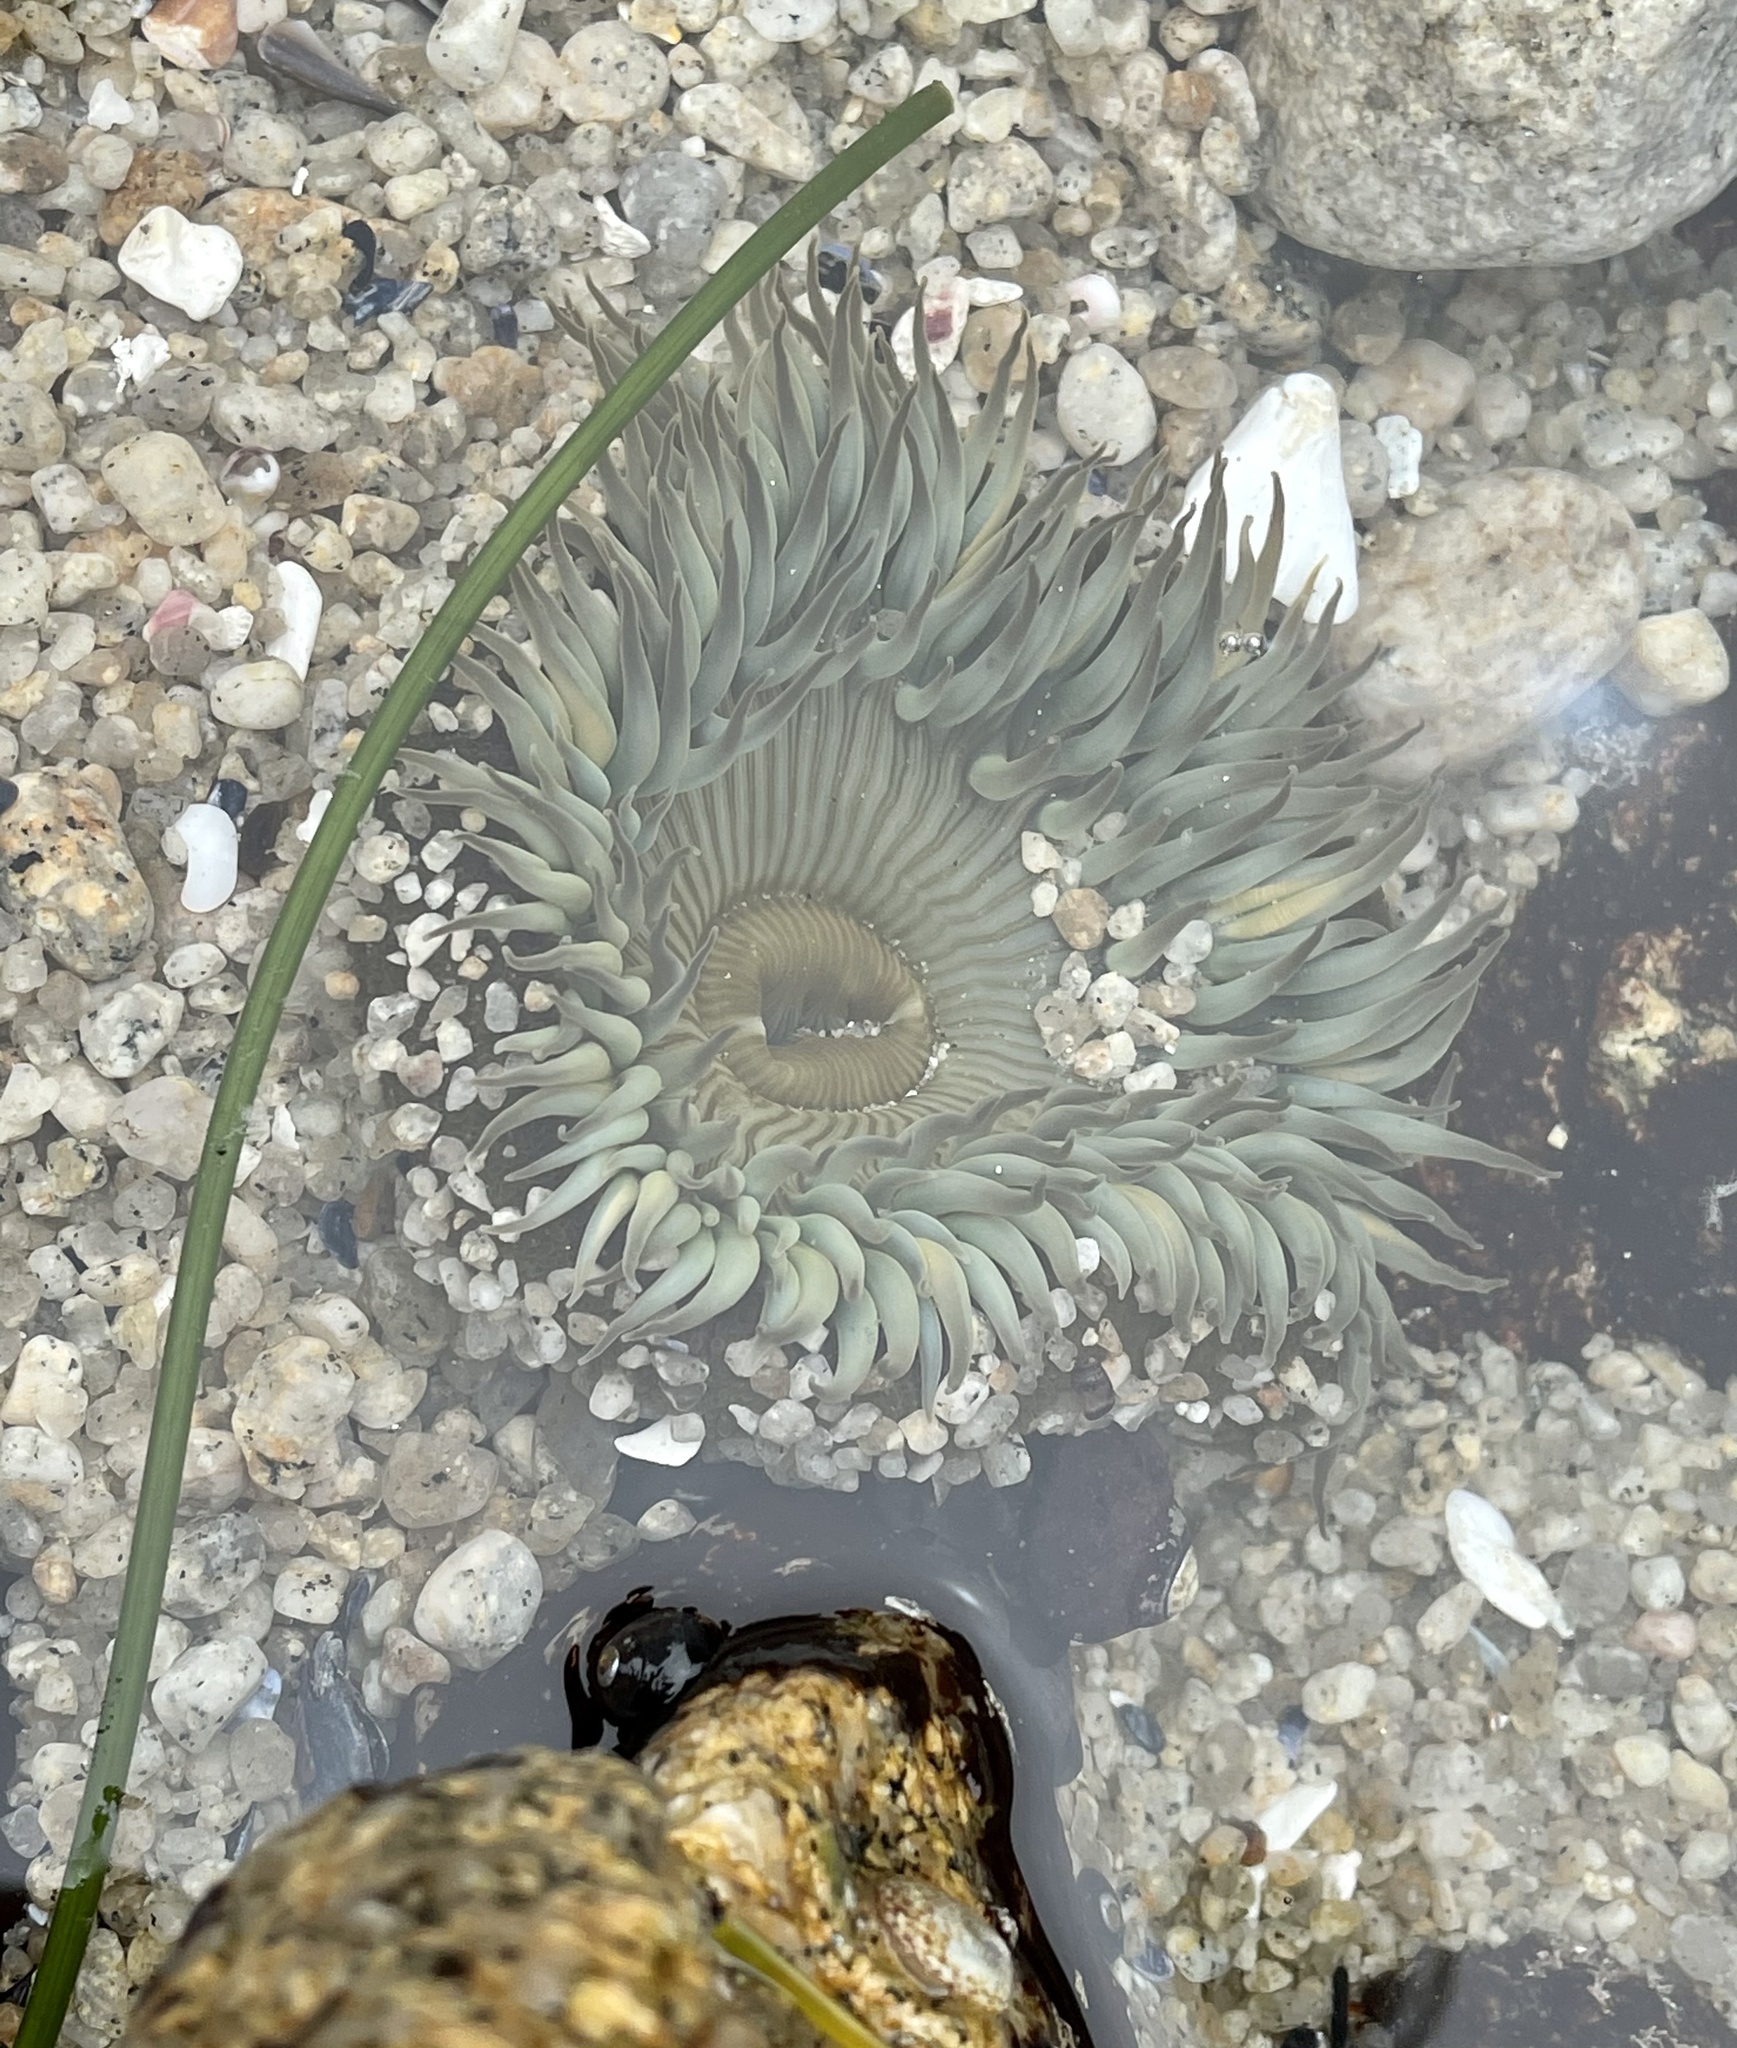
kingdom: Animalia
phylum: Cnidaria
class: Anthozoa
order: Actiniaria
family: Actiniidae
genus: Anthopleura
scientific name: Anthopleura sola
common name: Sun anemone
